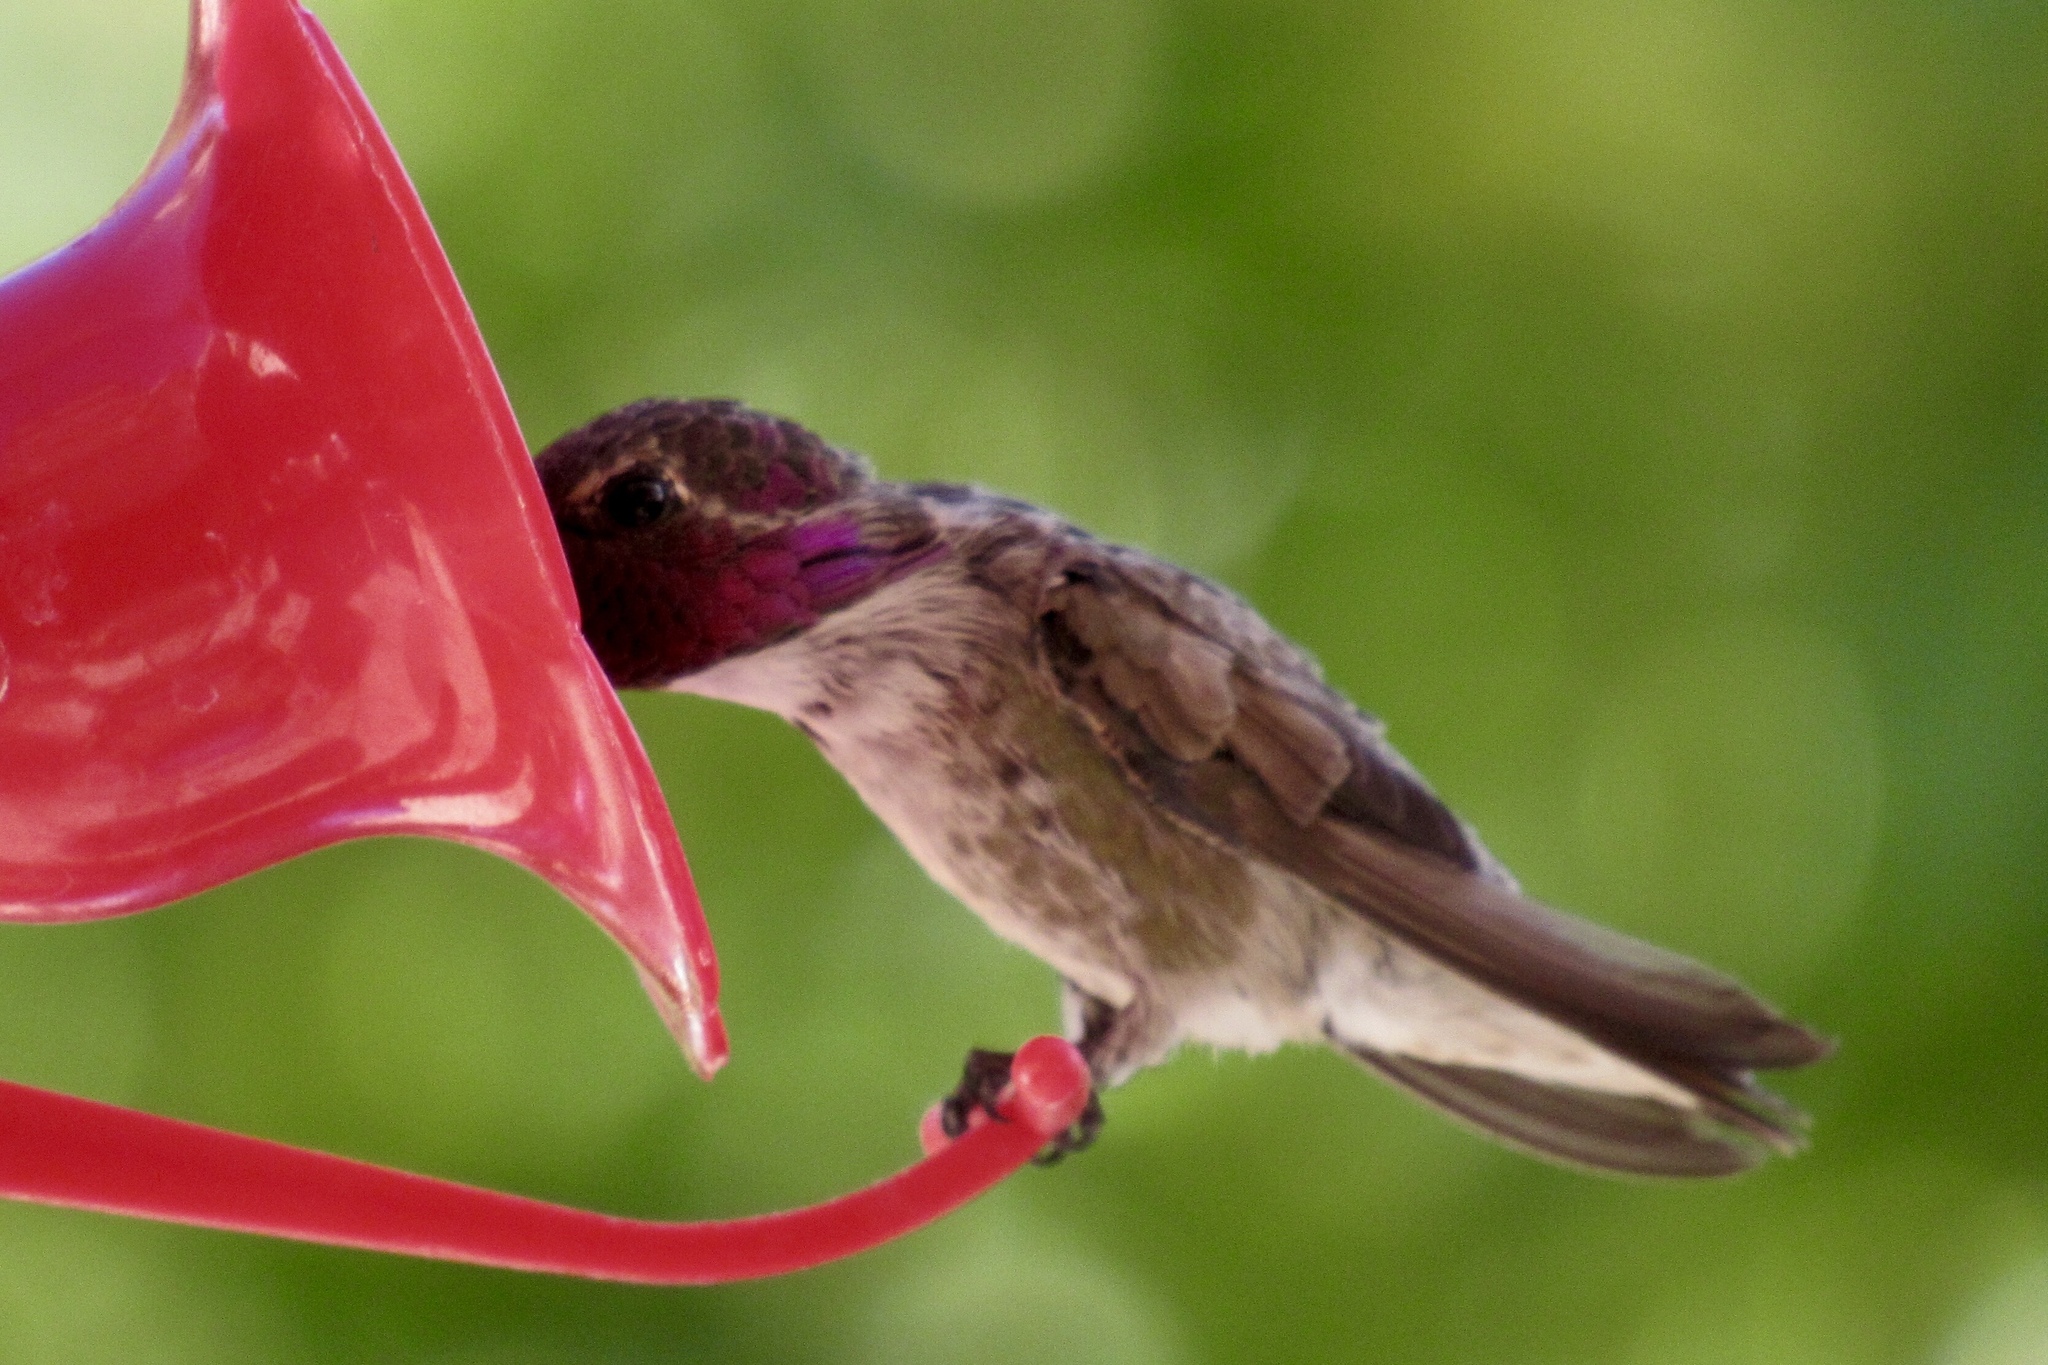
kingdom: Animalia
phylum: Chordata
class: Aves
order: Apodiformes
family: Trochilidae
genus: Calypte
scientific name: Calypte costae
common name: Costa's hummingbird
